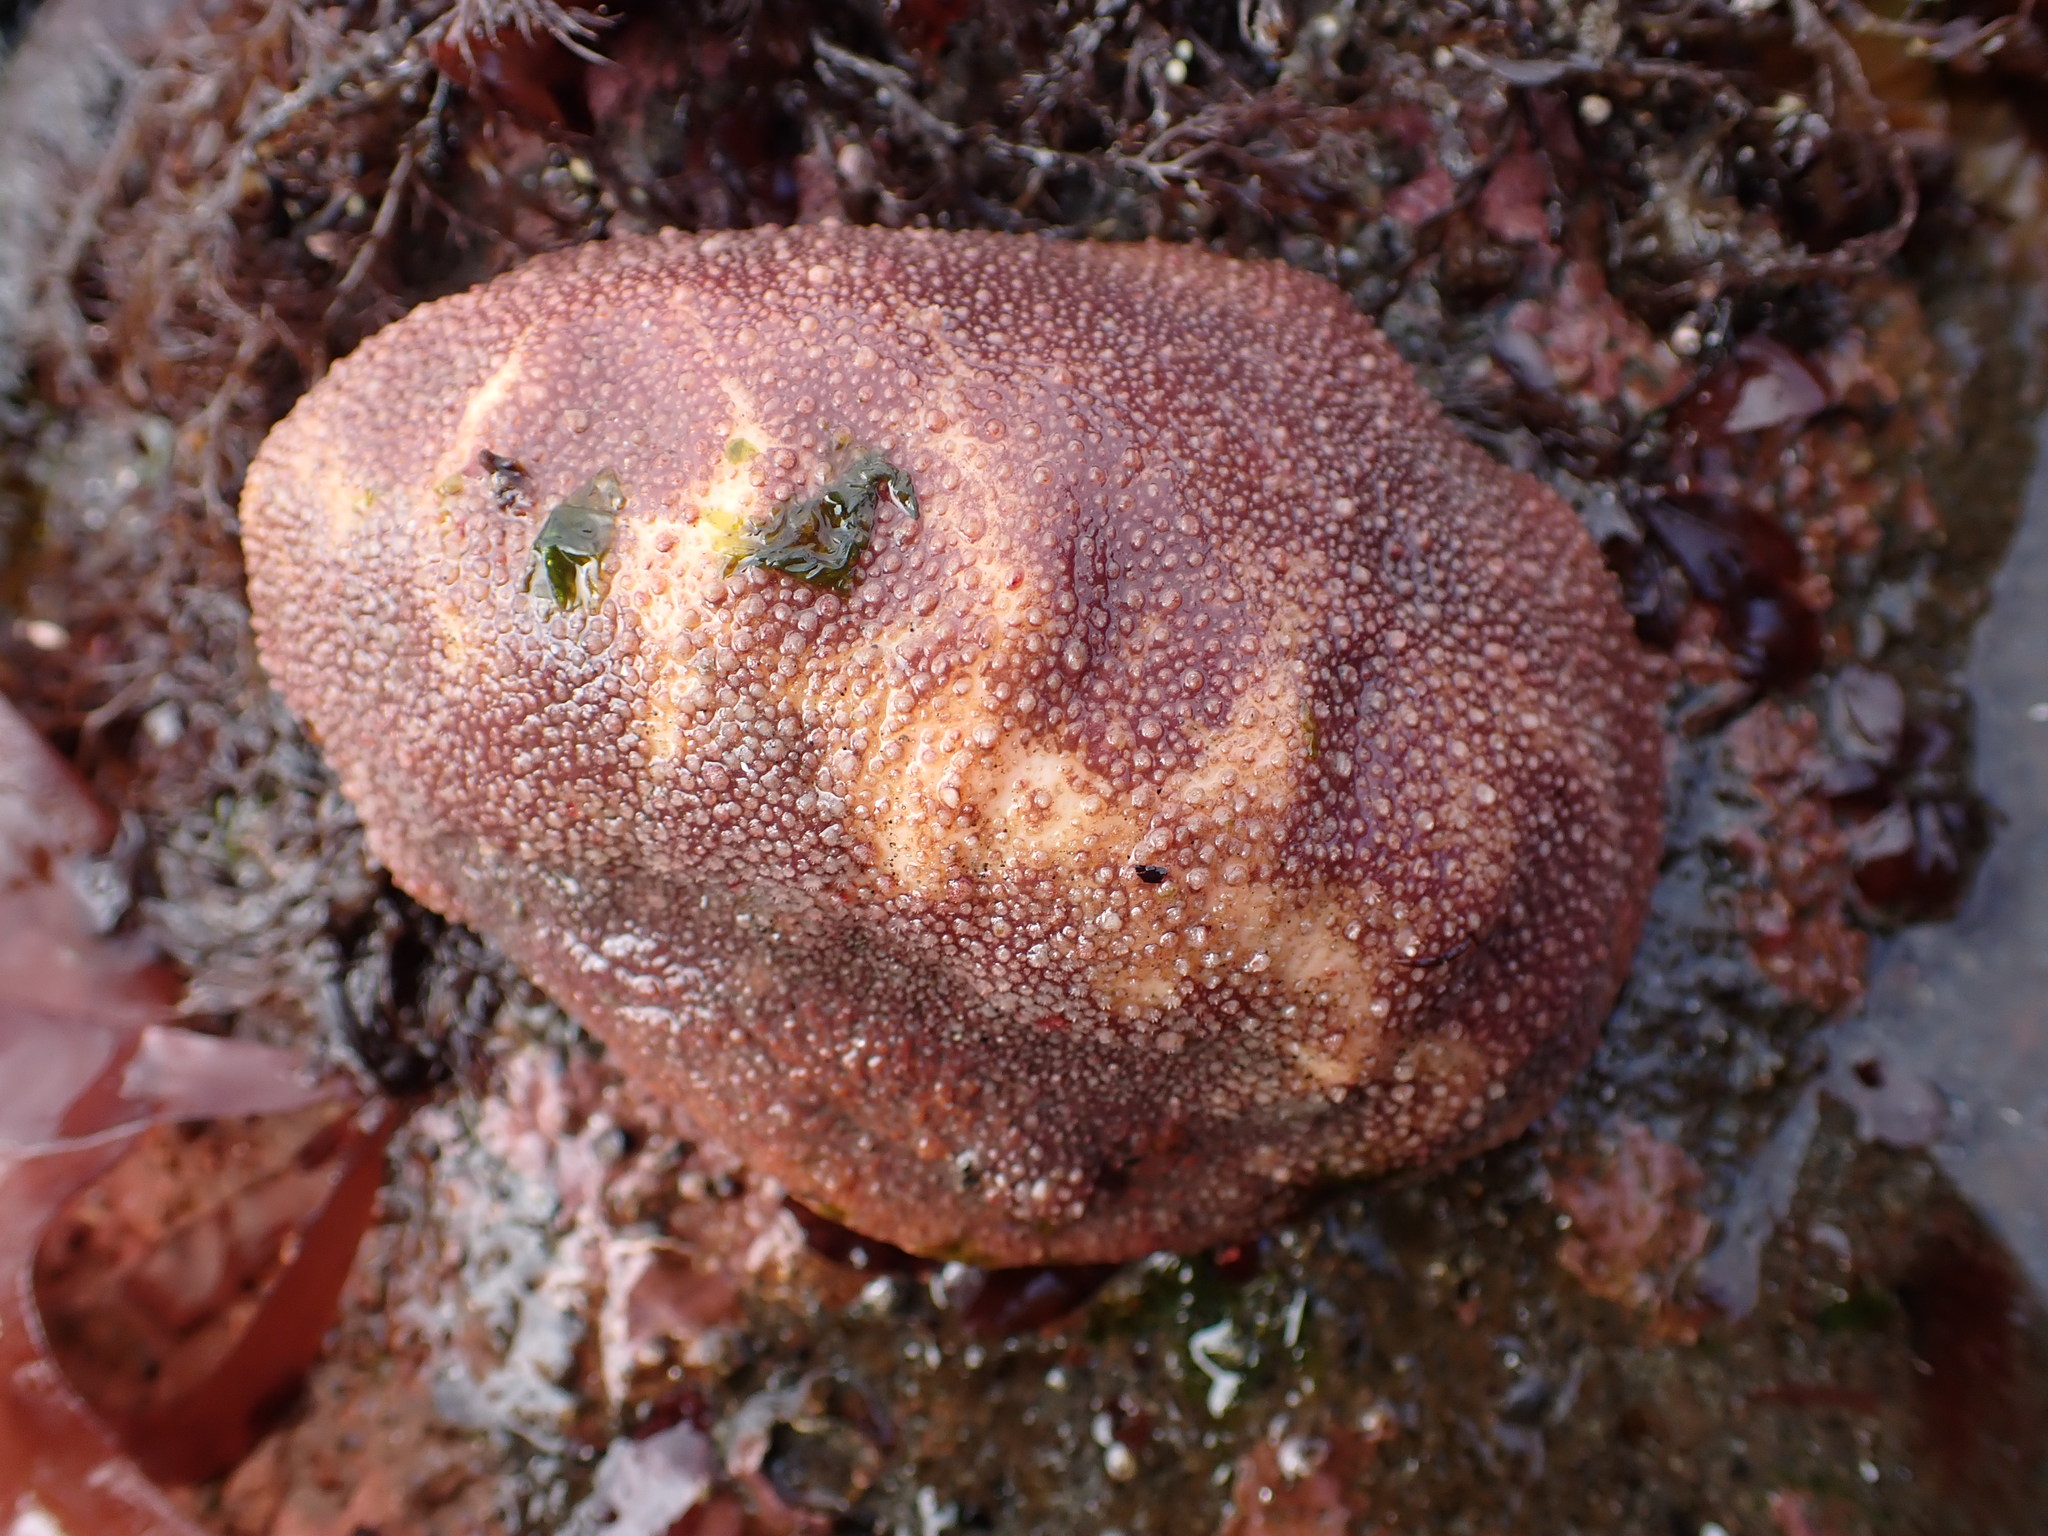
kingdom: Animalia
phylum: Mollusca
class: Polyplacophora
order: Chitonida
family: Acanthochitonidae
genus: Cryptochiton
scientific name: Cryptochiton stelleri
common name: Giant pacific chiton
